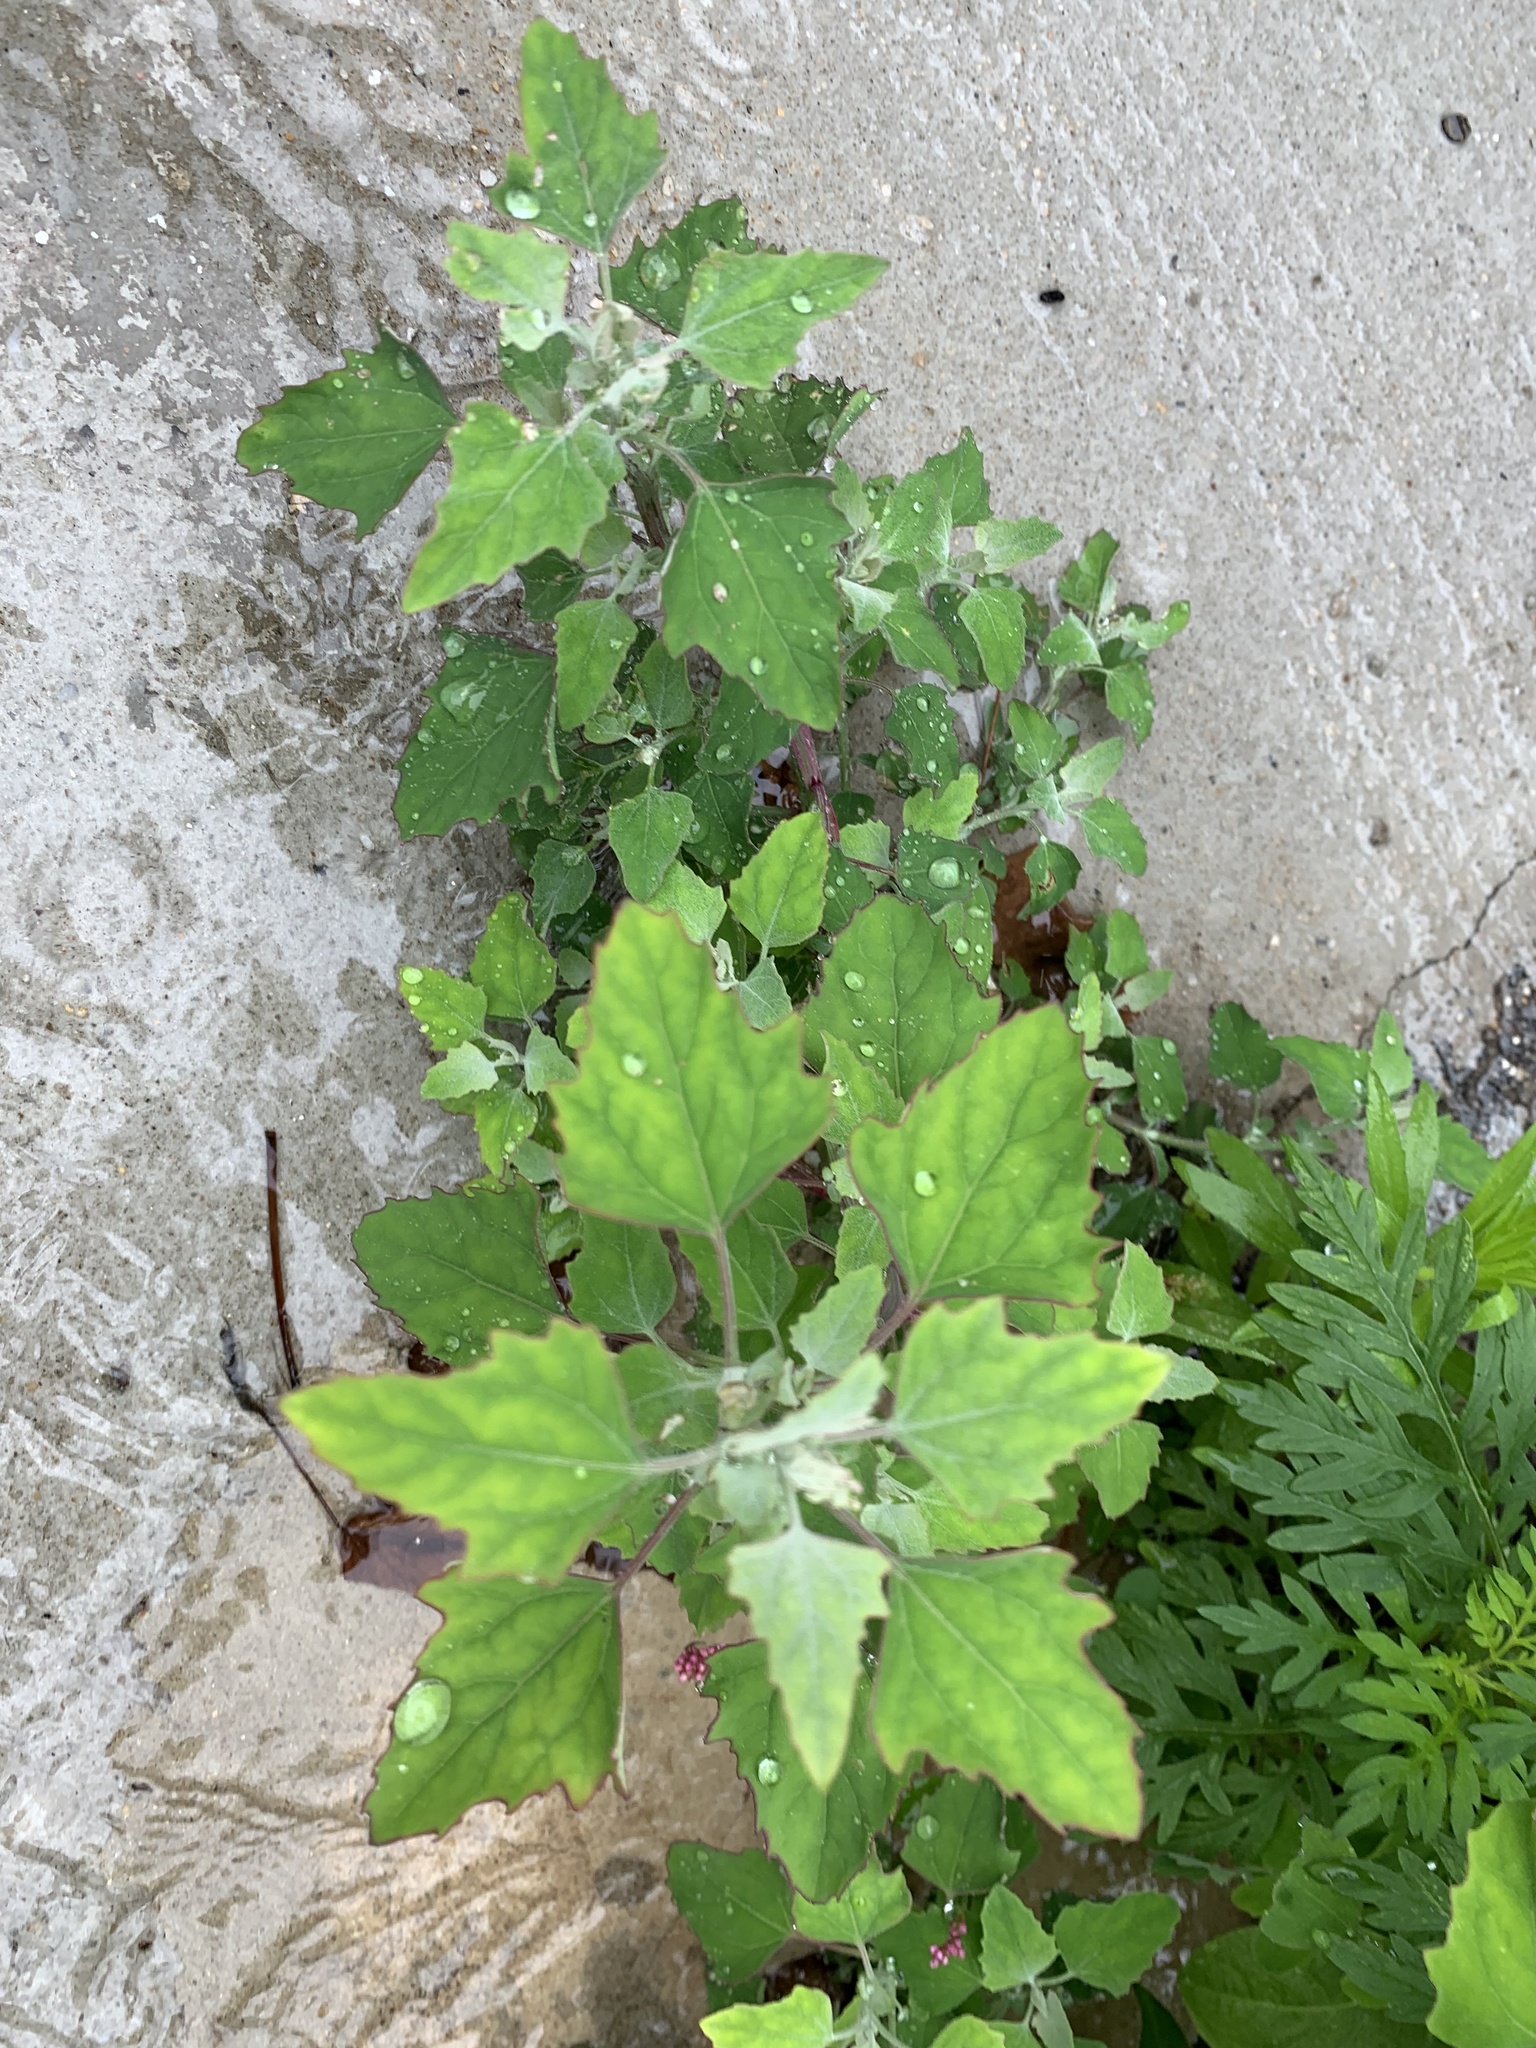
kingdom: Plantae
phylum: Tracheophyta
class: Magnoliopsida
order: Caryophyllales
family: Amaranthaceae
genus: Chenopodium
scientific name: Chenopodium album
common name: Fat-hen
